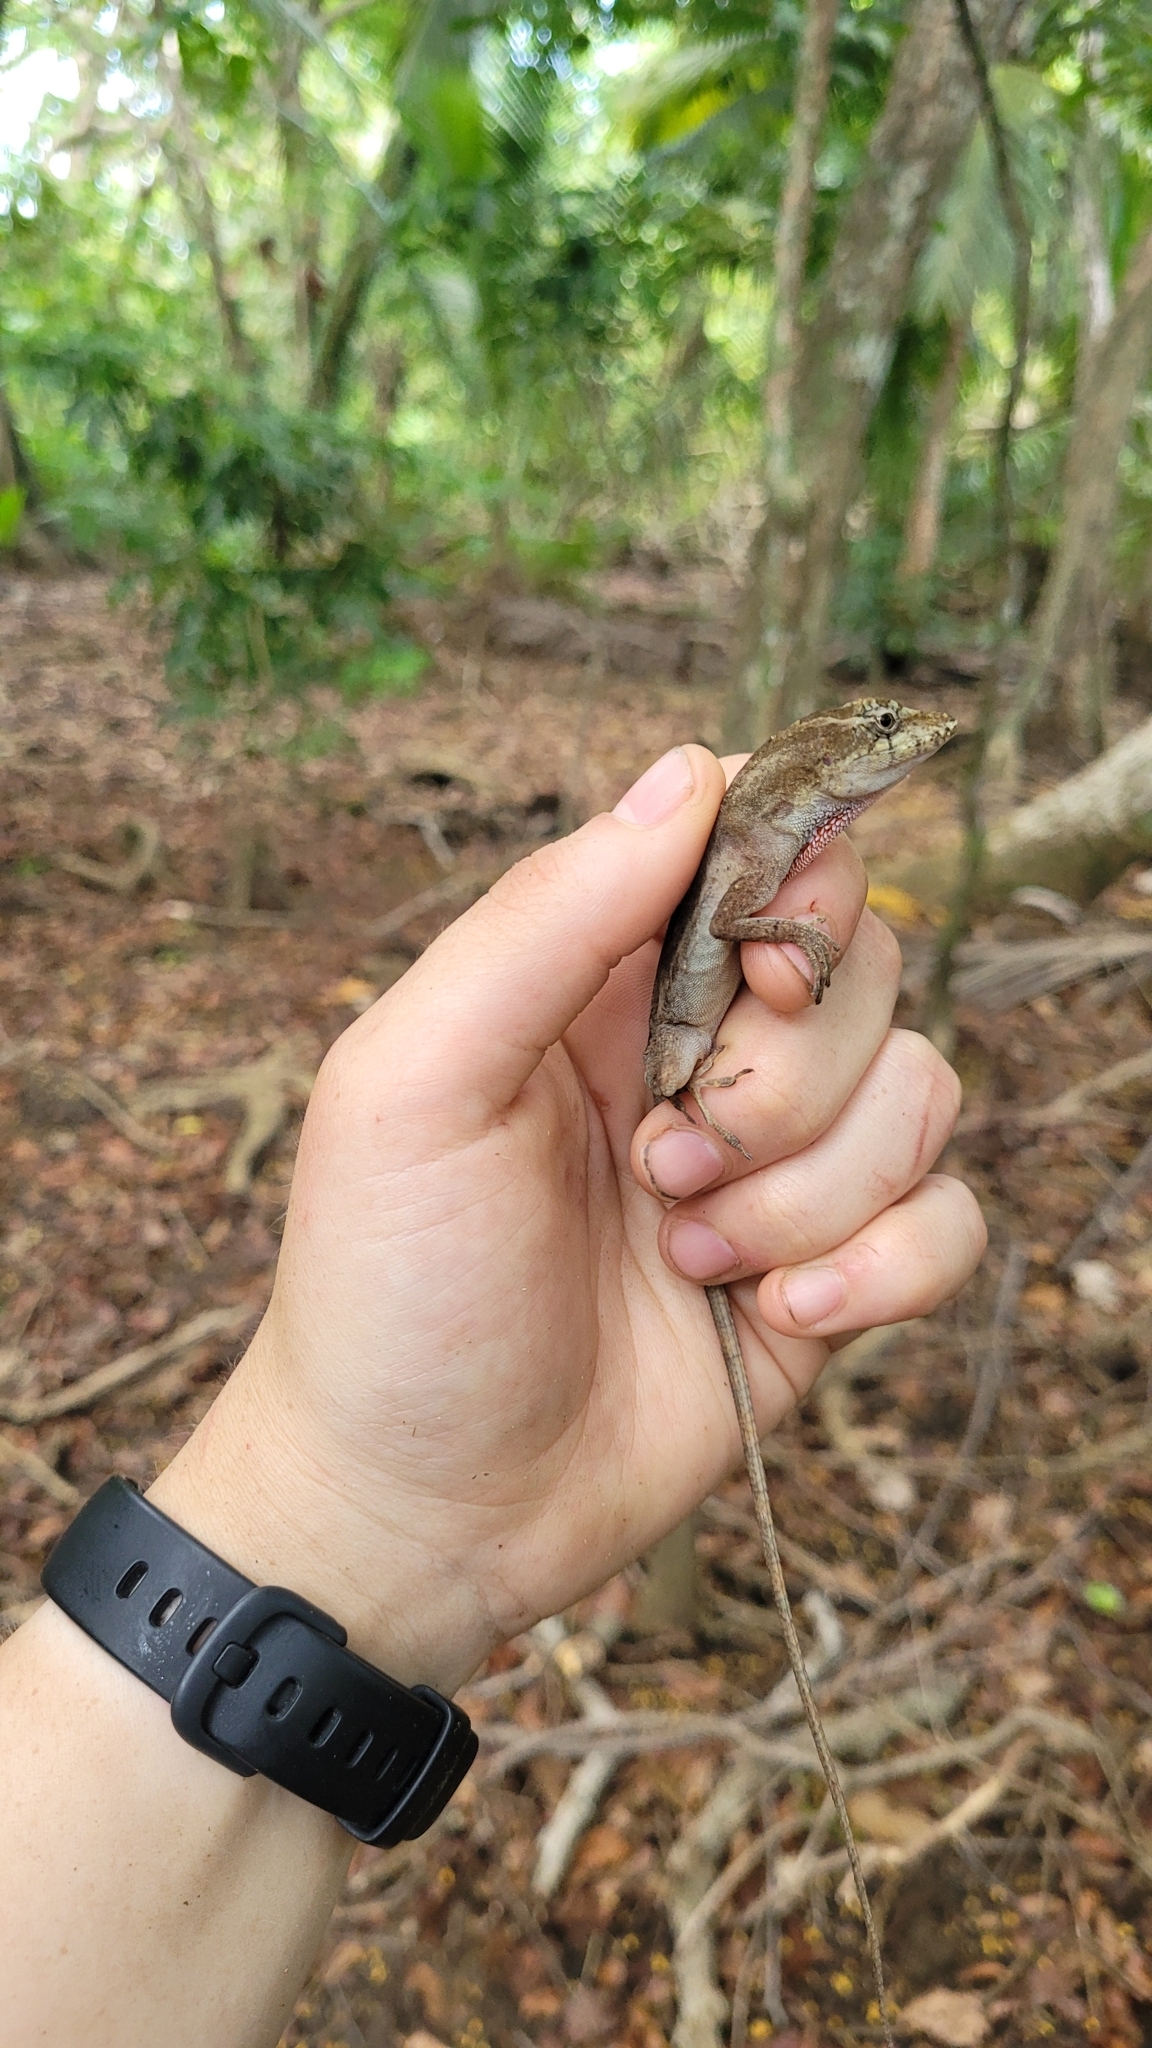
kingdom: Animalia
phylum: Chordata
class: Squamata
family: Dactyloidae
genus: Anolis
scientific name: Anolis bicaorum
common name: Bay islands anole
